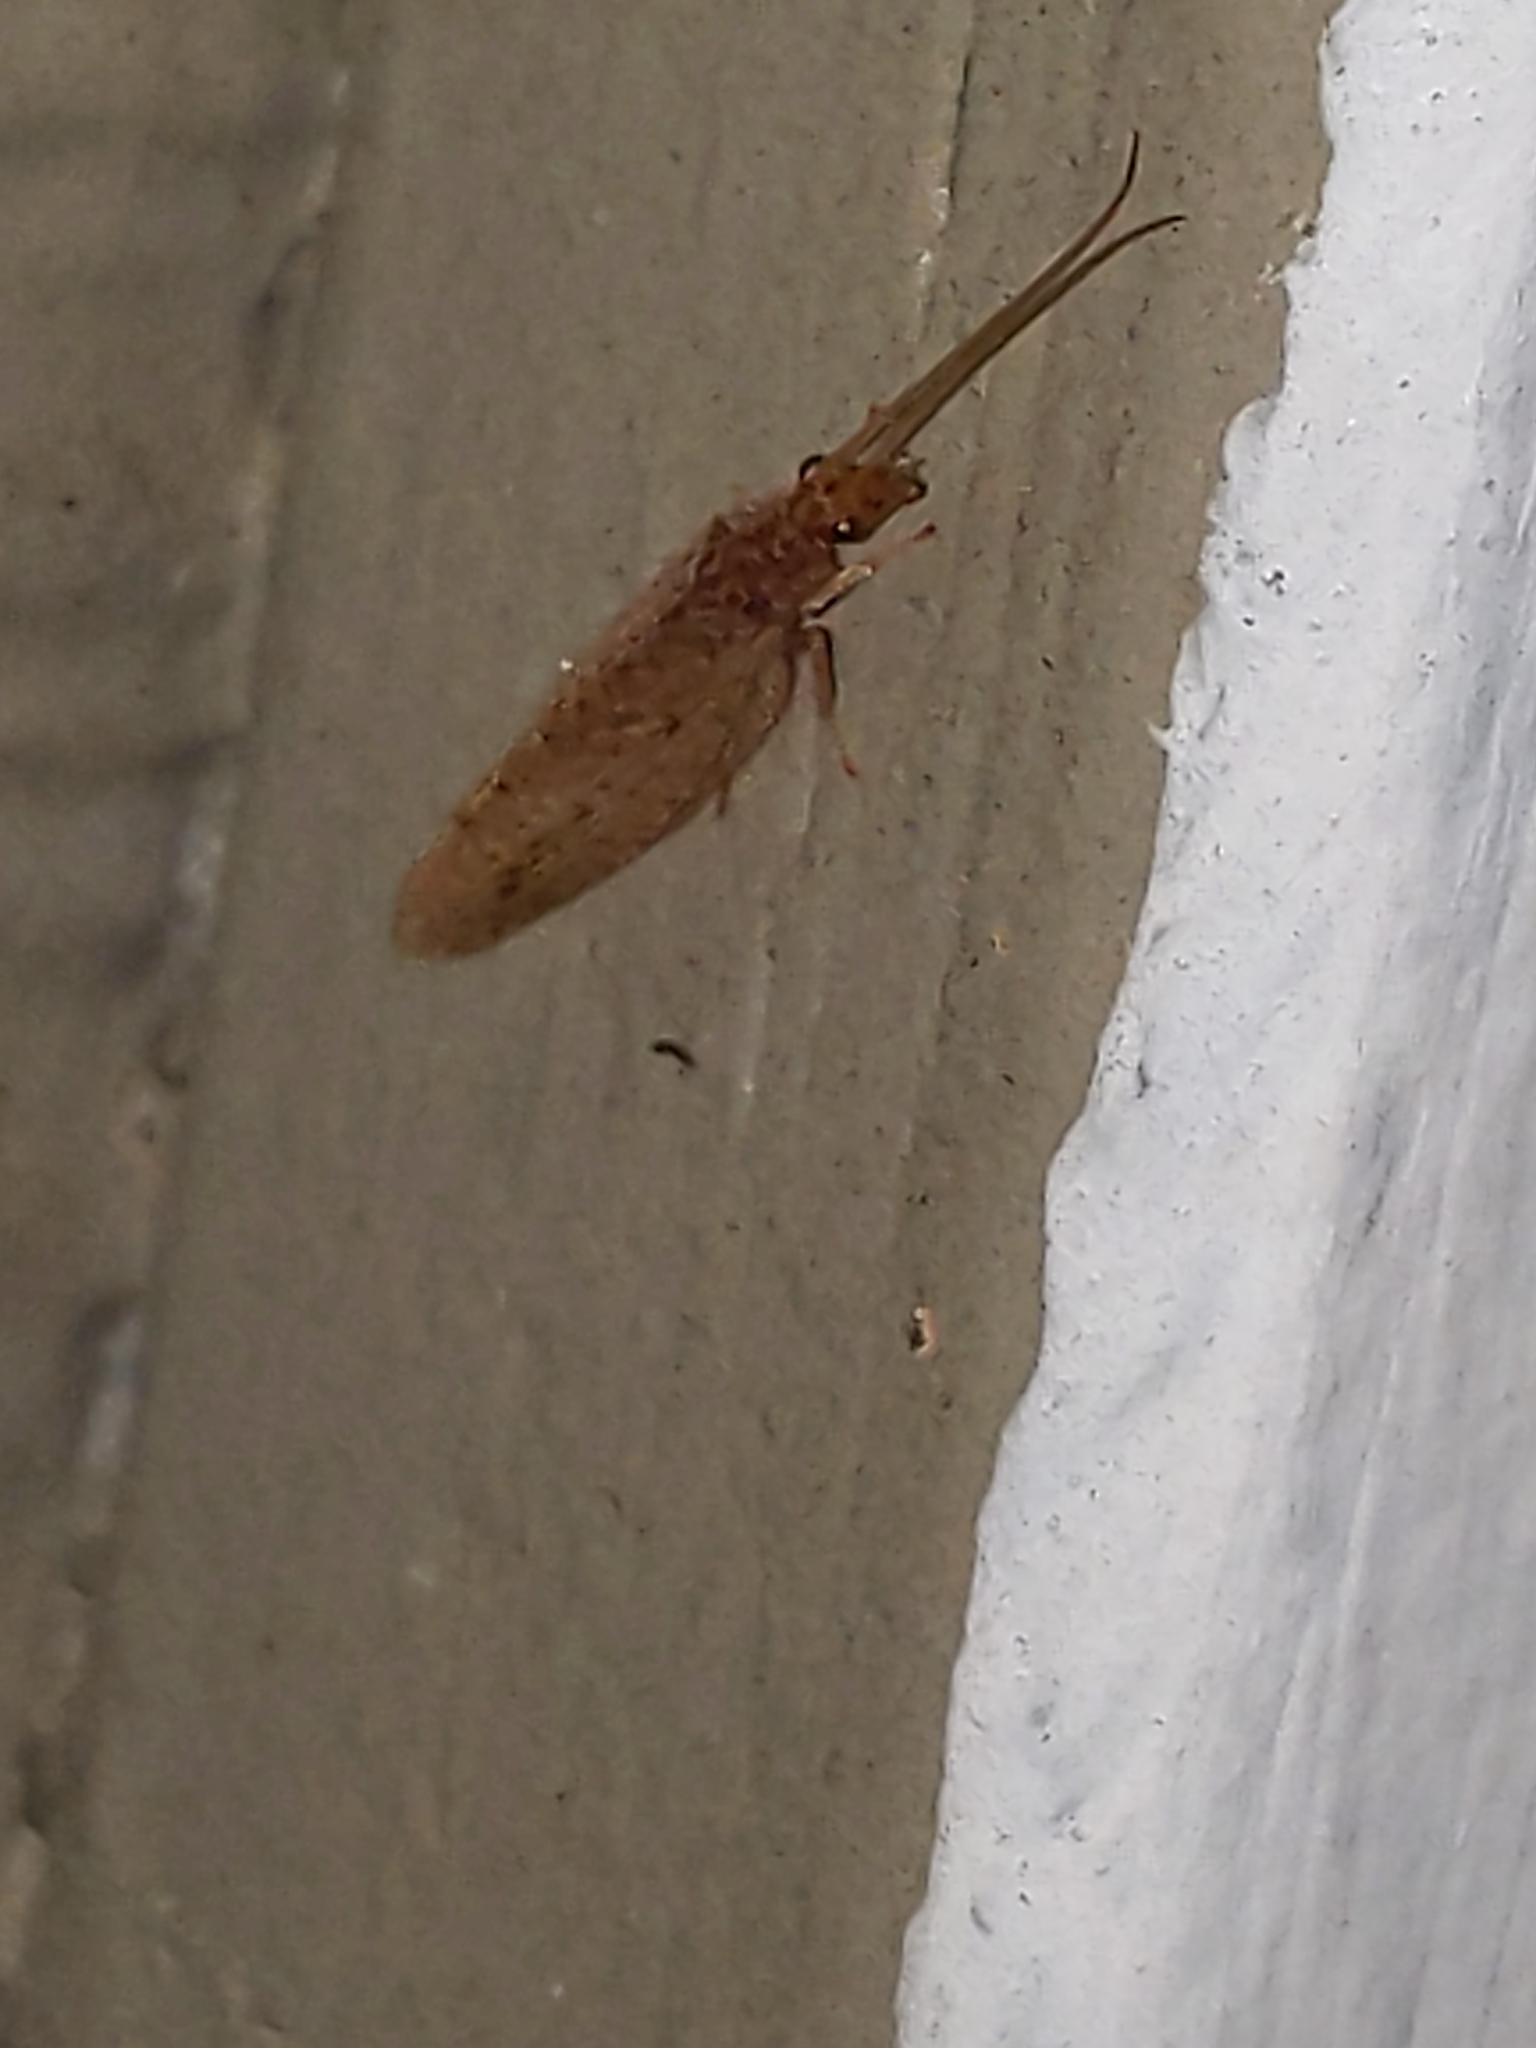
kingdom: Animalia
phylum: Arthropoda
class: Insecta
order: Neuroptera
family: Hemerobiidae
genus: Micromus
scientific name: Micromus subanticus
